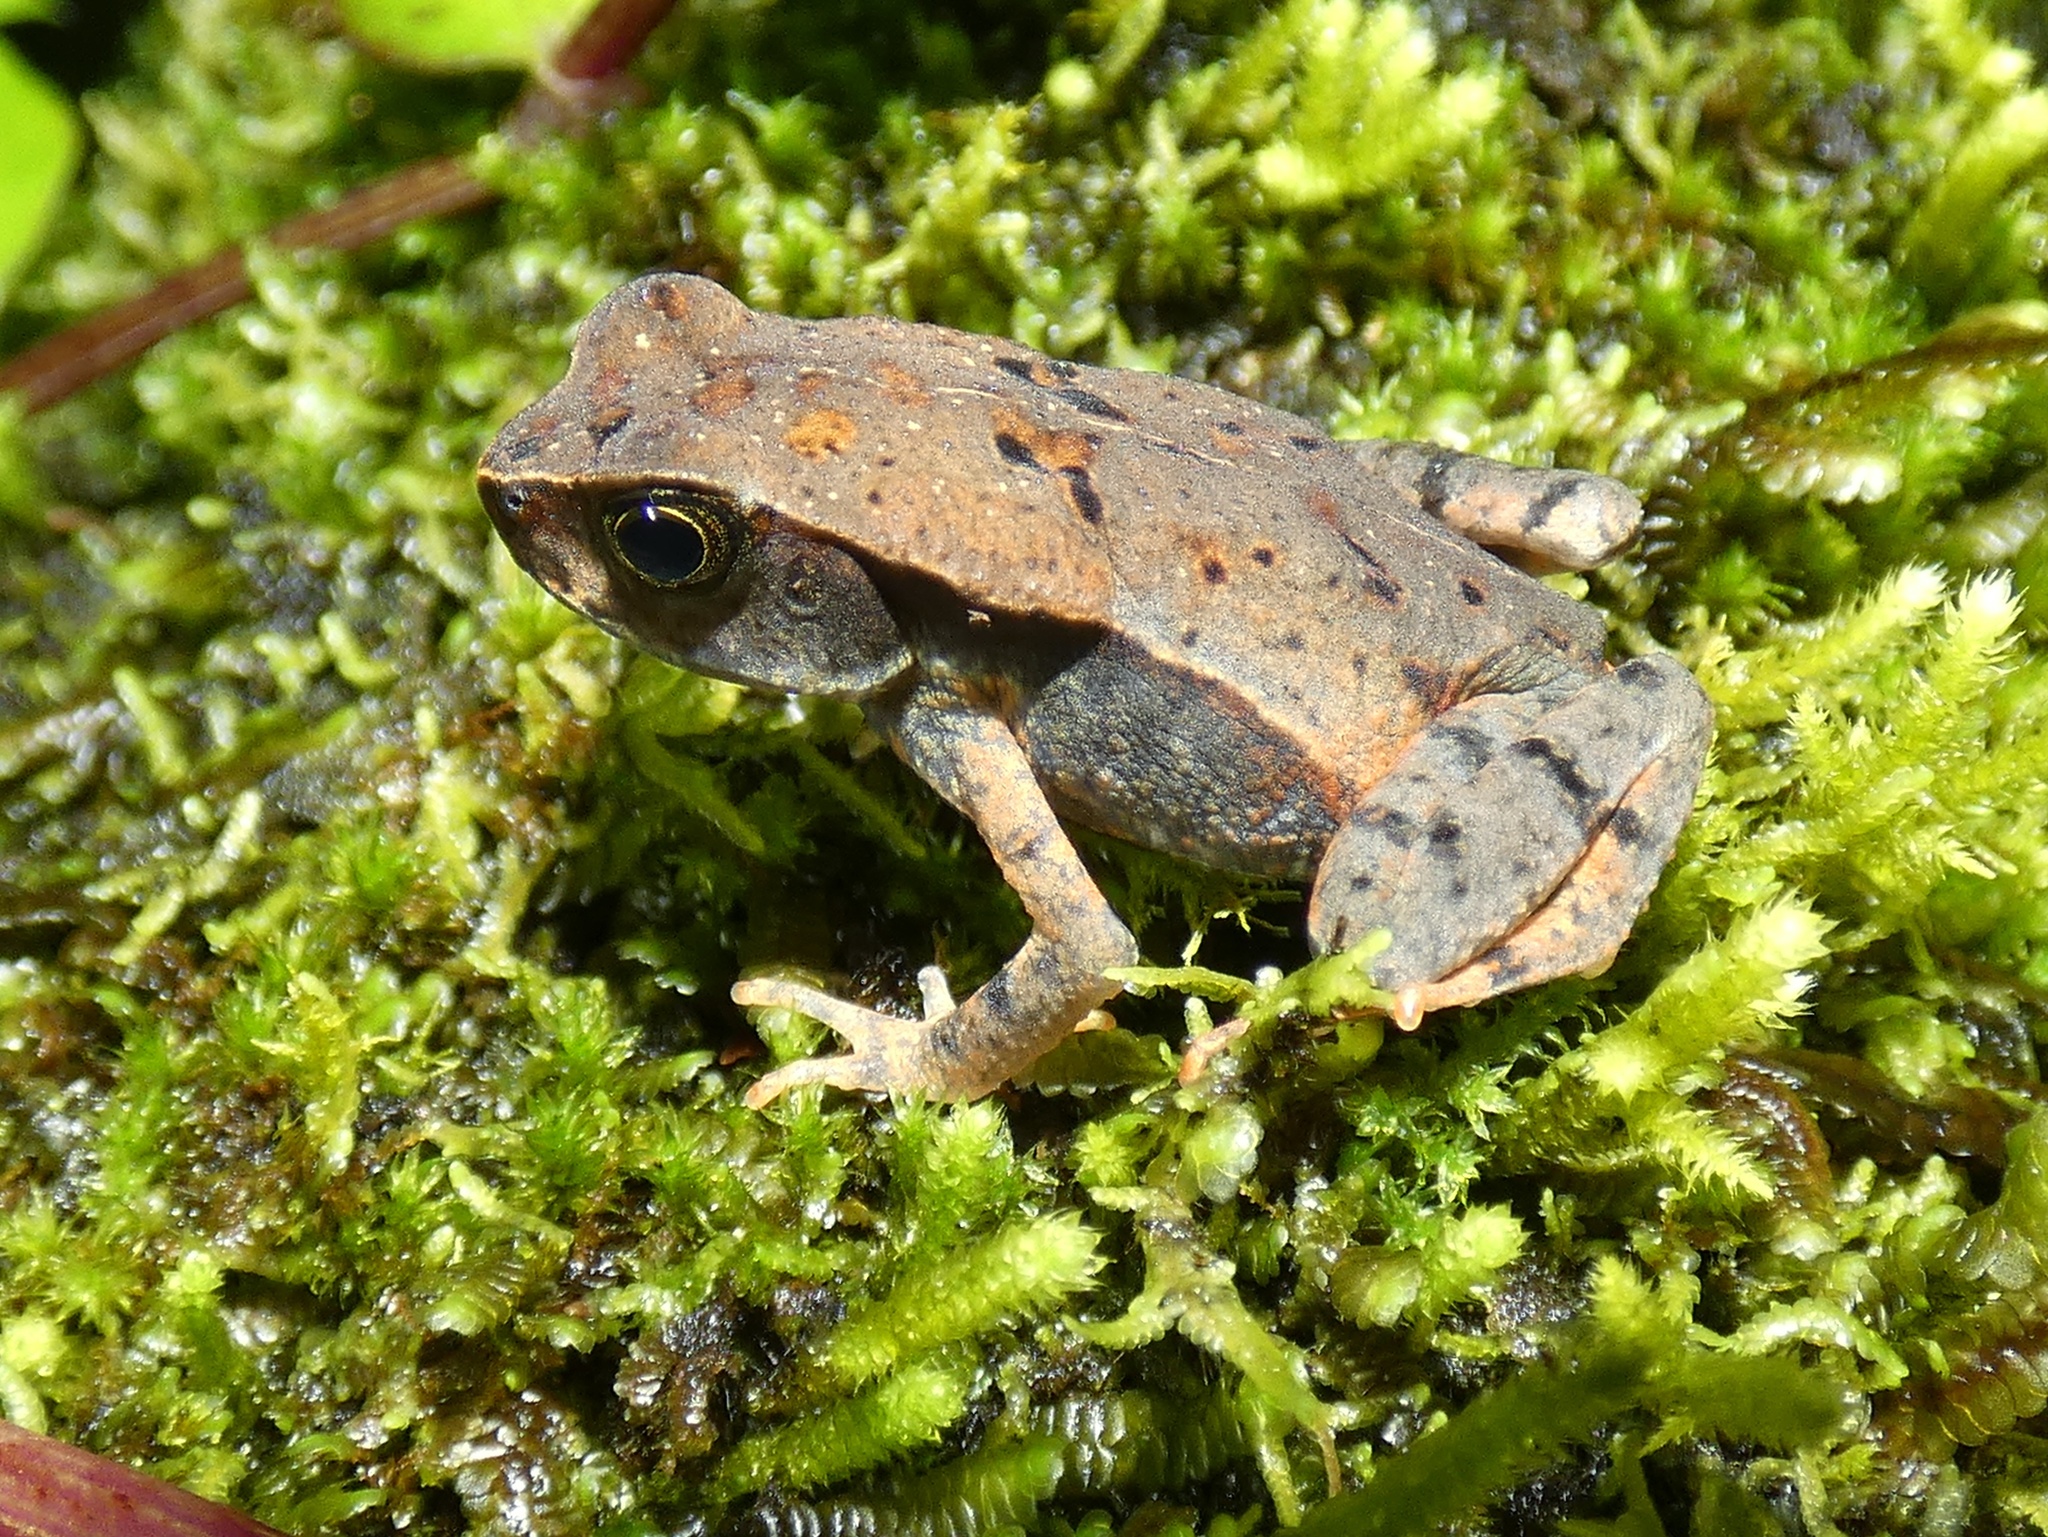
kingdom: Animalia
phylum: Chordata
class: Amphibia
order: Anura
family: Bufonidae
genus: Rhaebo
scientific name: Rhaebo haematiticus
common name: Truando toad
